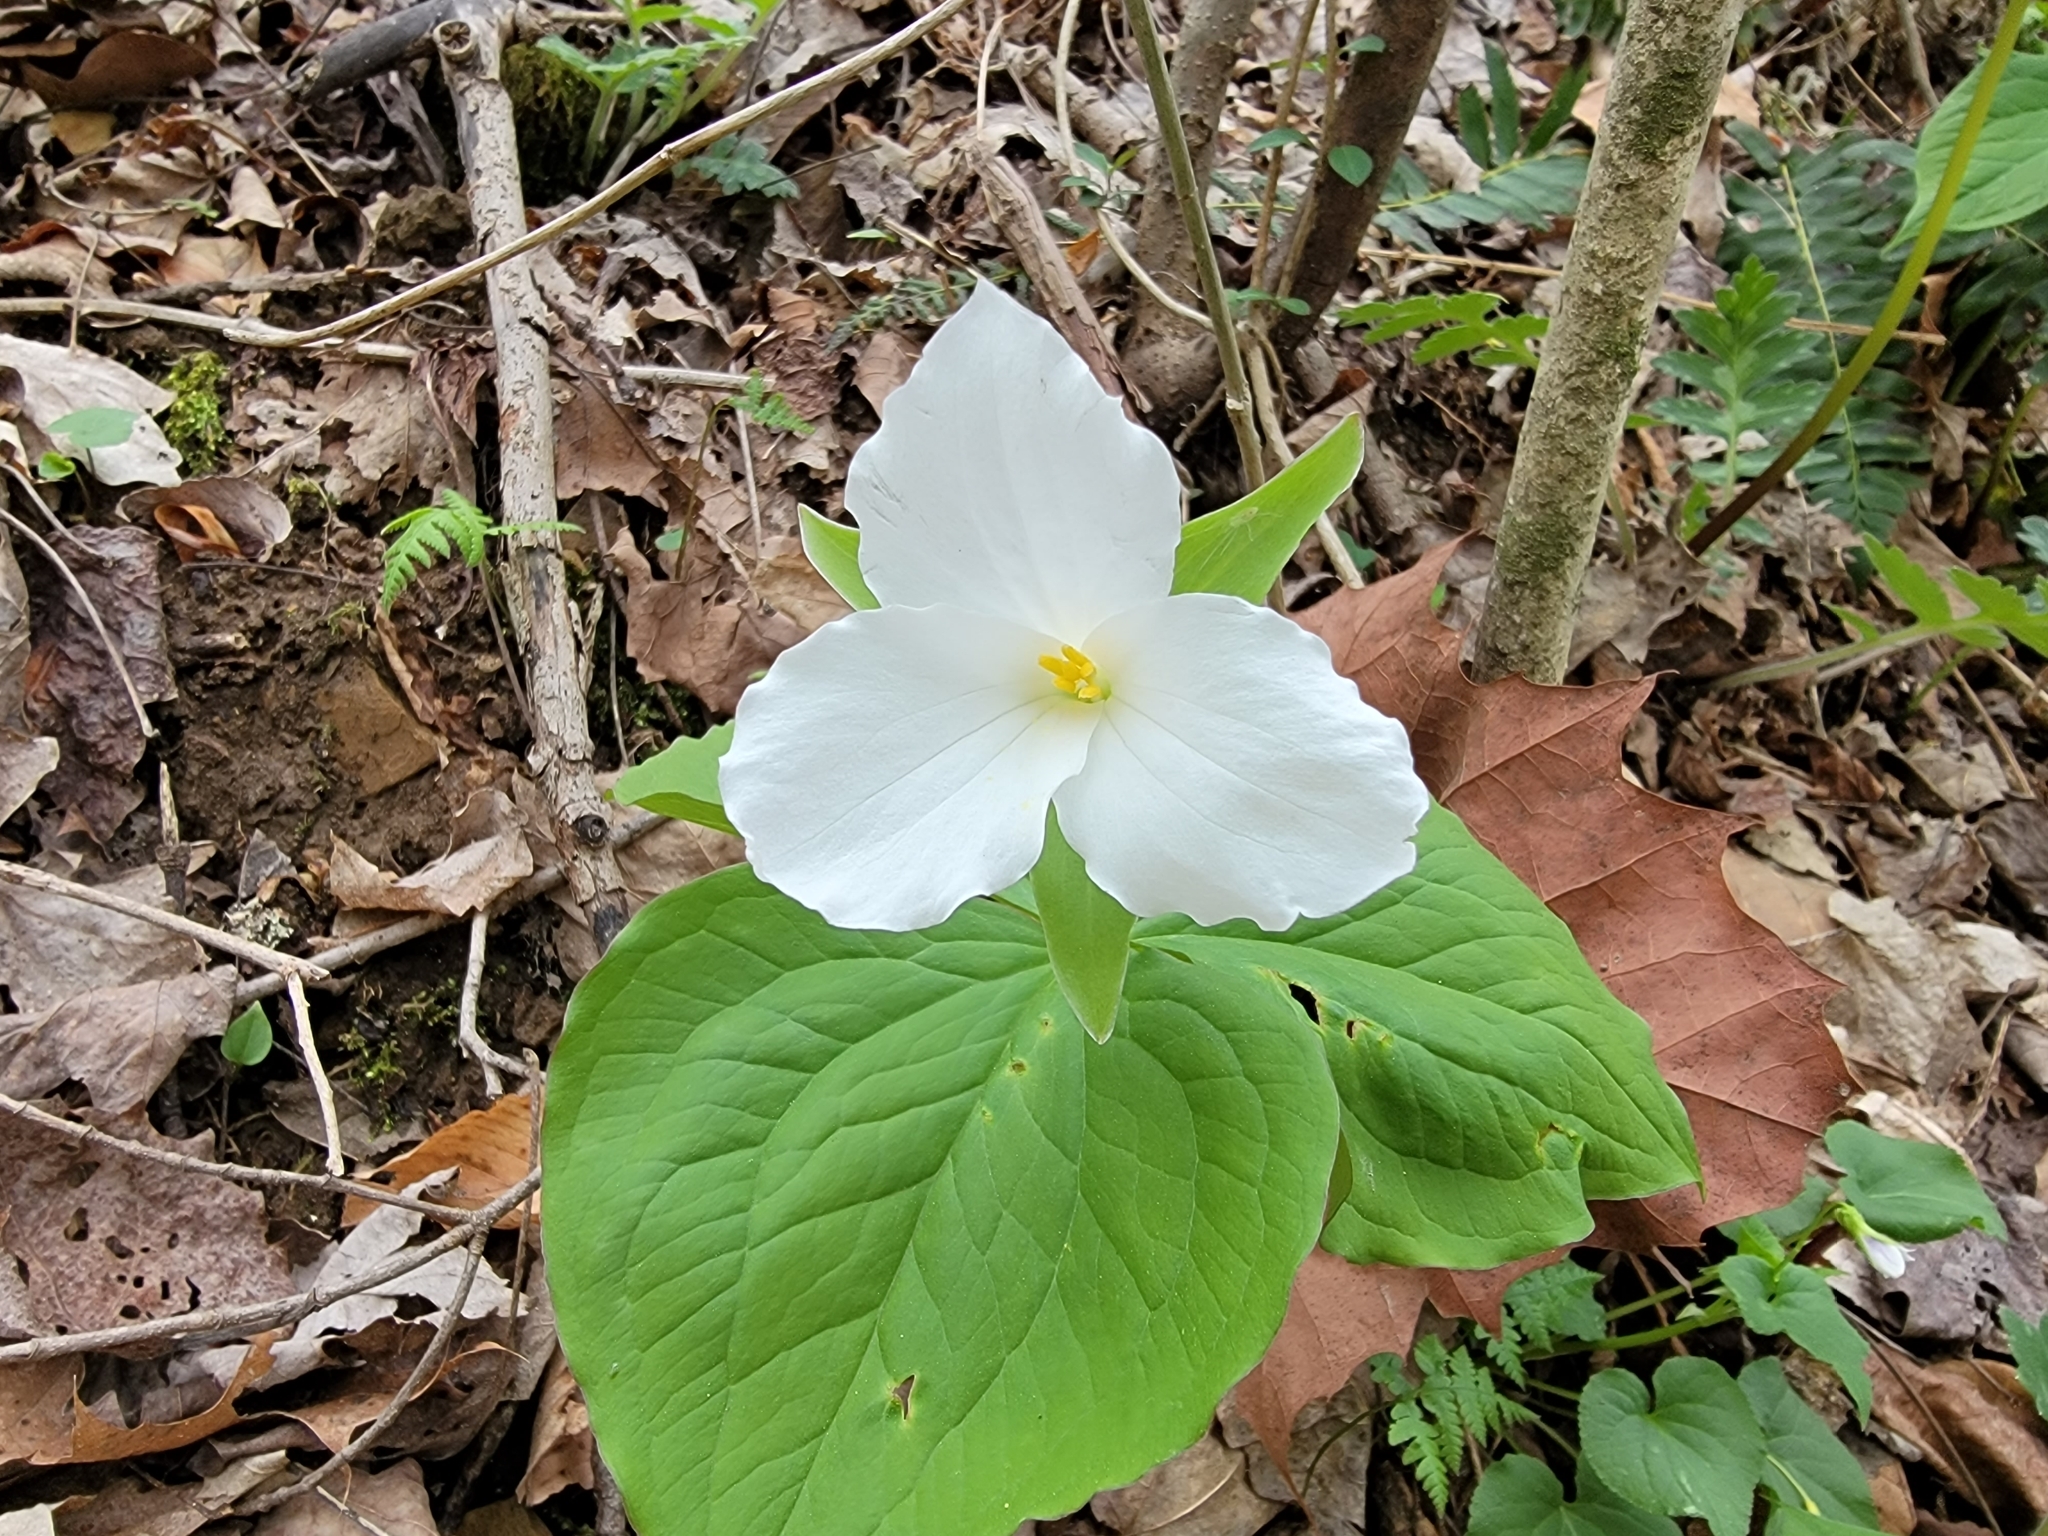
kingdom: Plantae
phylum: Tracheophyta
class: Liliopsida
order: Liliales
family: Melanthiaceae
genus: Trillium
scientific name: Trillium grandiflorum
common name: Great white trillium
